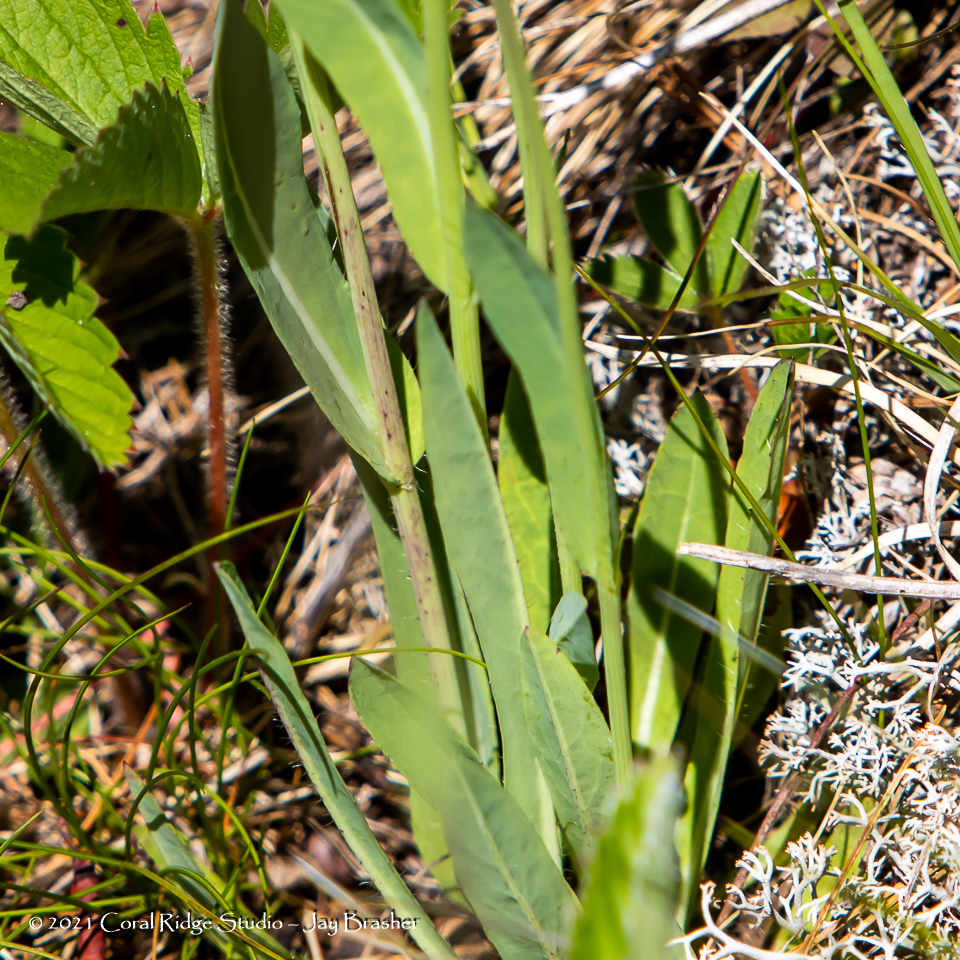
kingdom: Plantae
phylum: Tracheophyta
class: Magnoliopsida
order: Asterales
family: Asteraceae
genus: Pilosella
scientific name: Pilosella caespitosa
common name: Yellow fox-and-cubs
